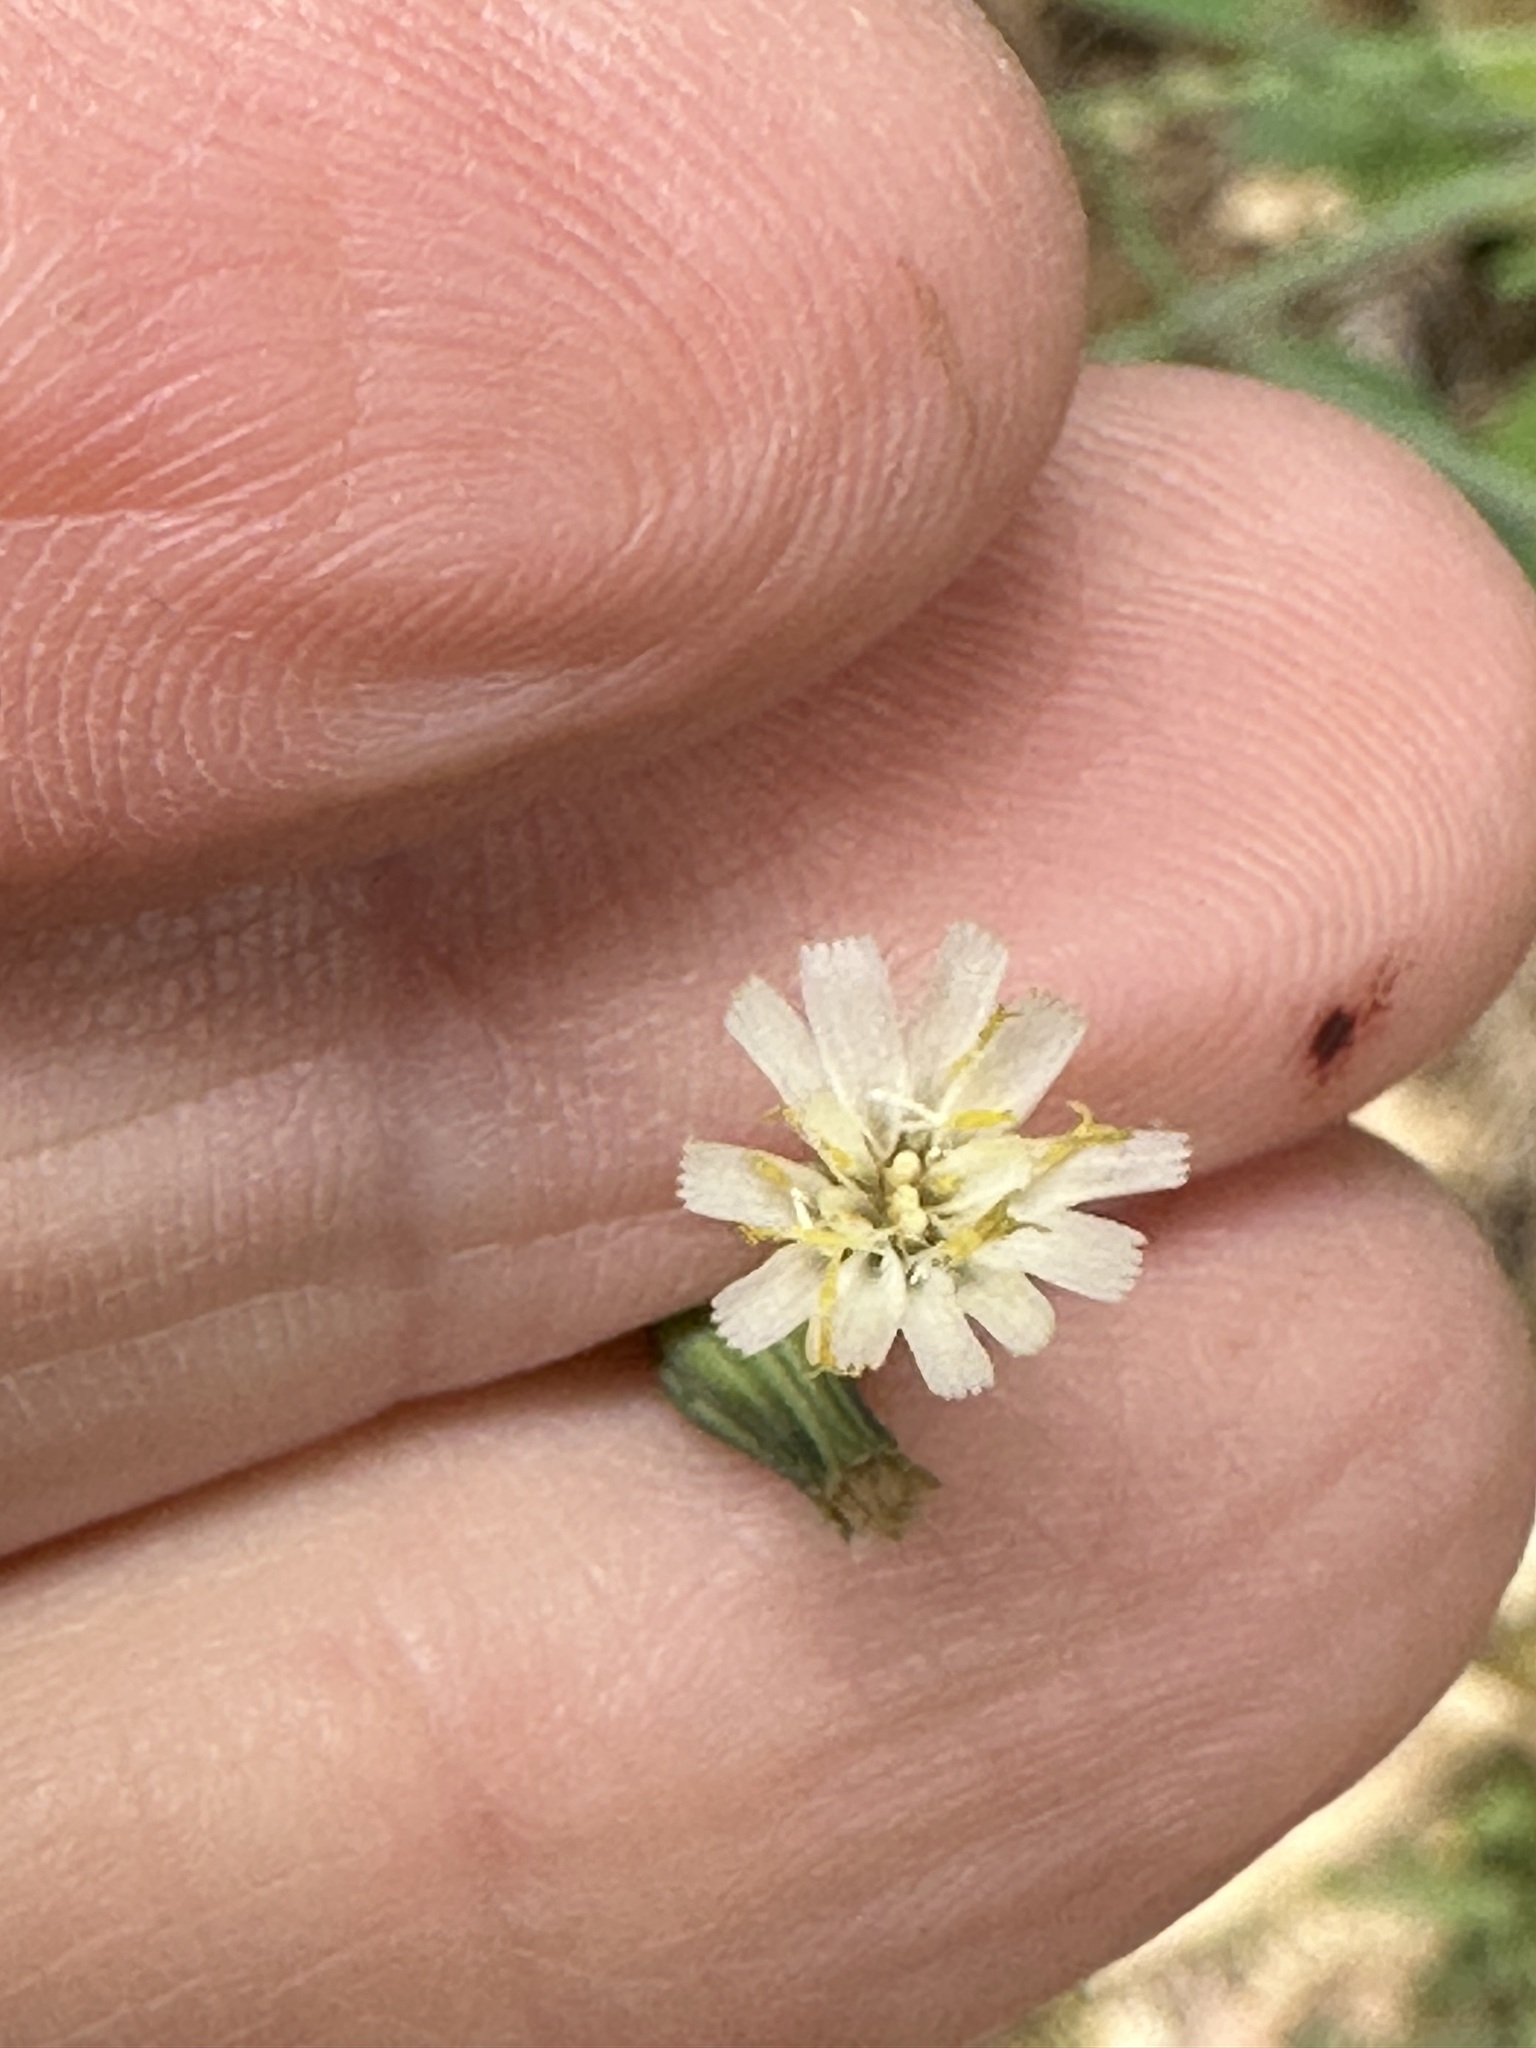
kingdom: Plantae
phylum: Tracheophyta
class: Magnoliopsida
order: Asterales
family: Asteraceae
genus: Hieracium
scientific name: Hieracium albiflorum
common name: White hawkweed
